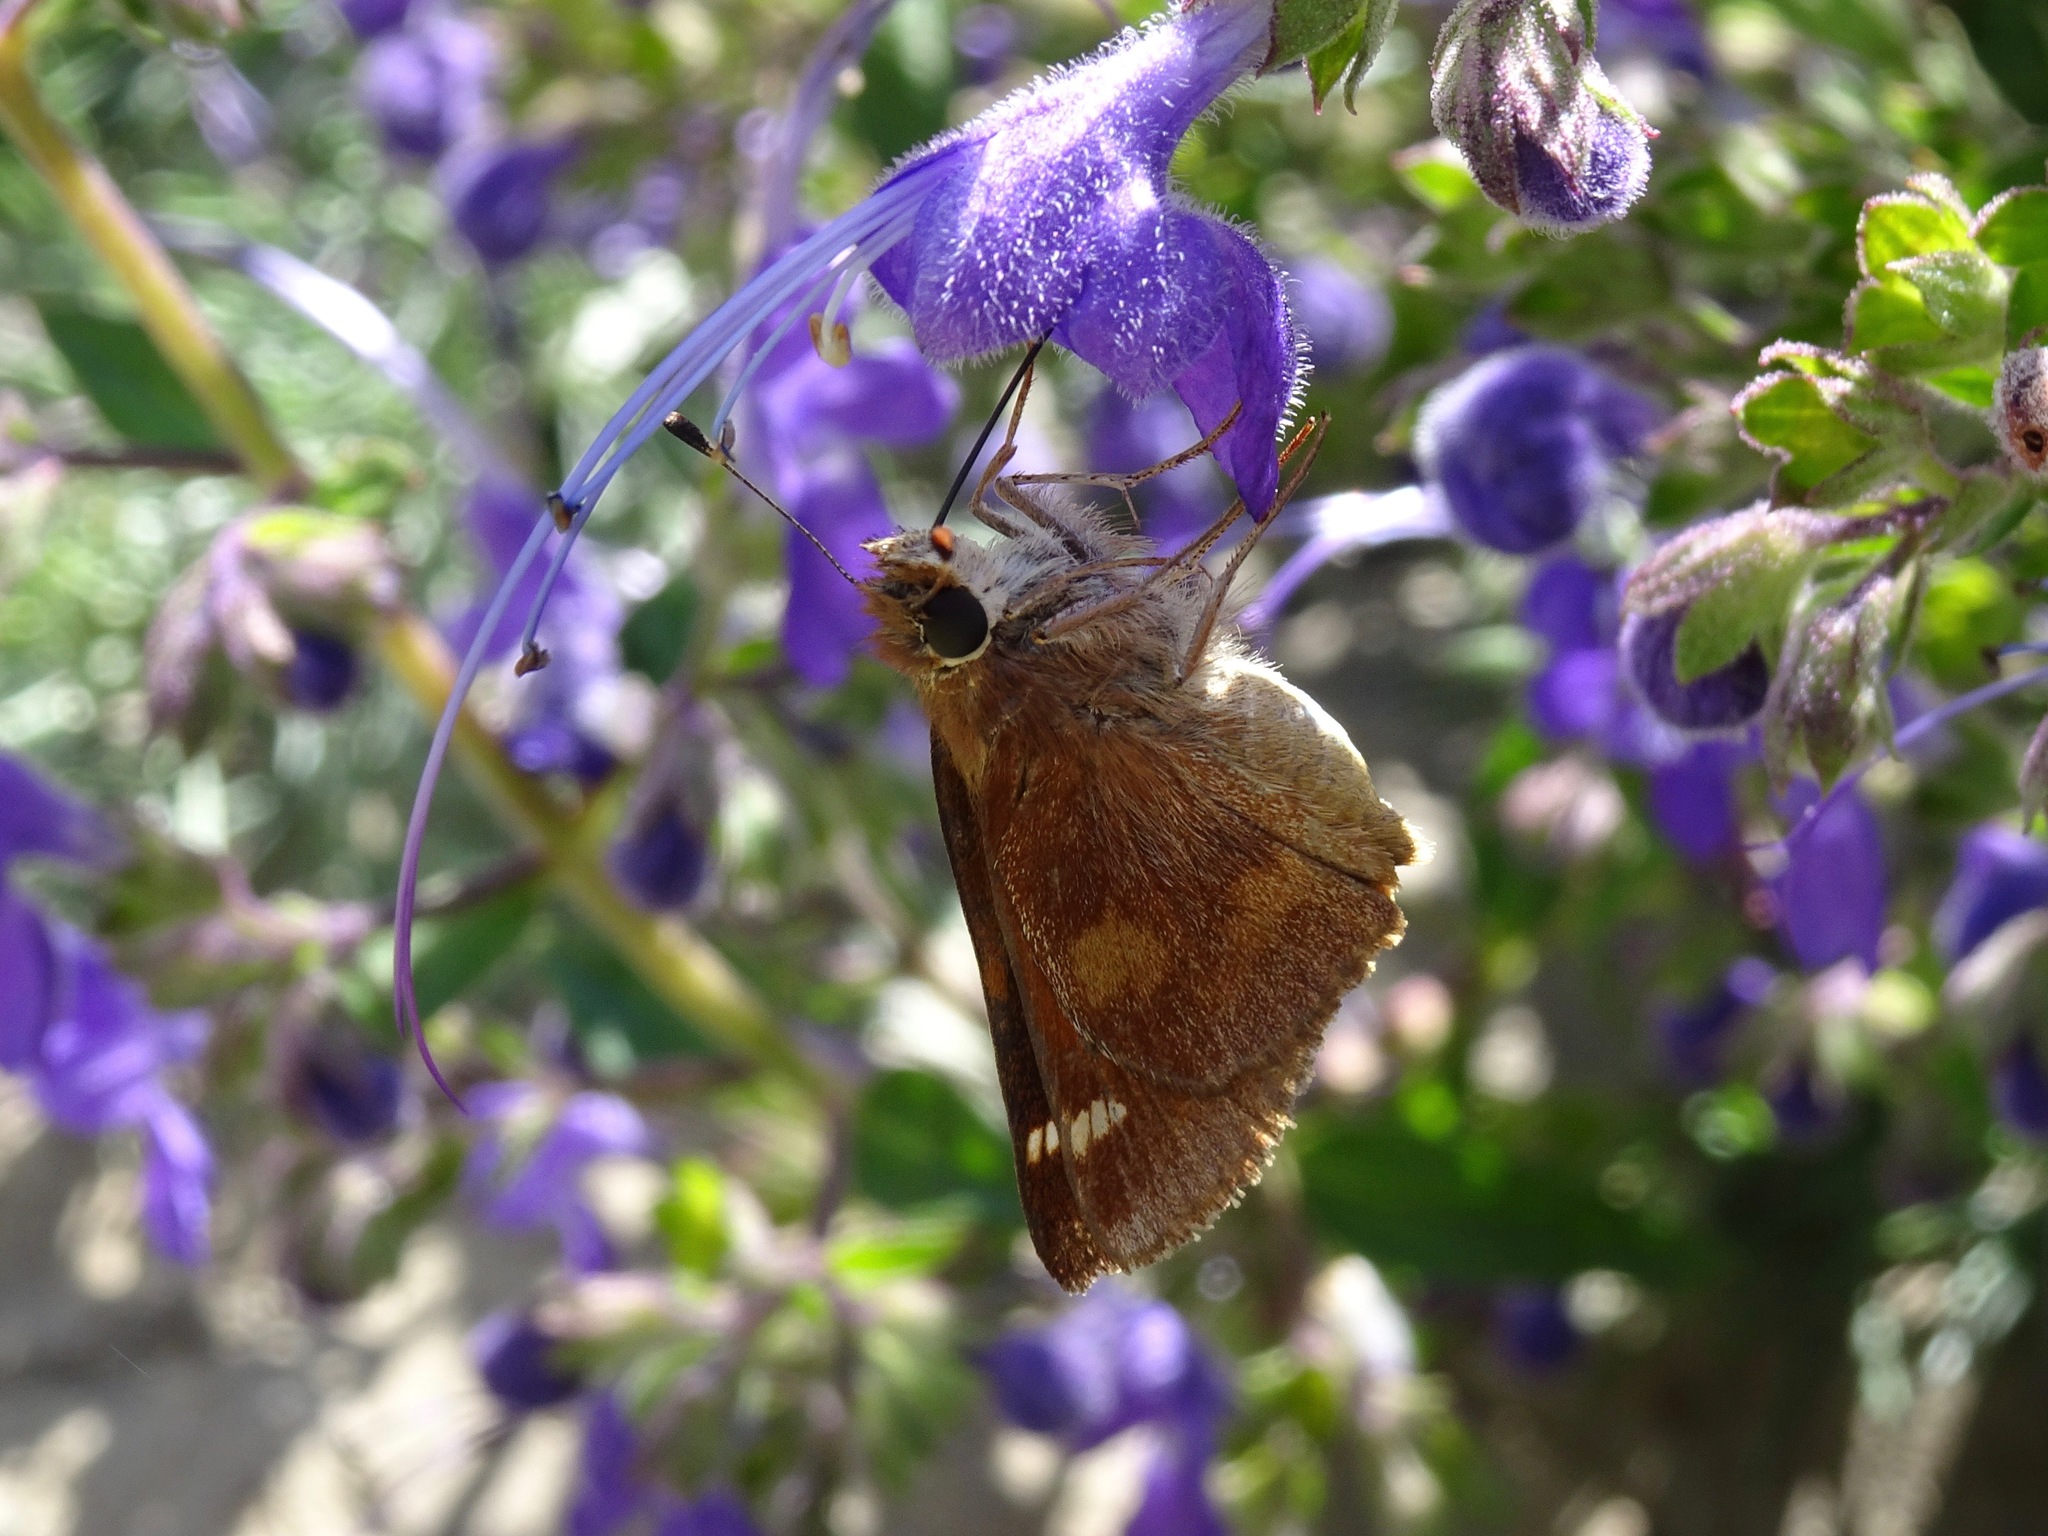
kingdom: Animalia
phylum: Arthropoda
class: Insecta
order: Lepidoptera
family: Hesperiidae
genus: Lon
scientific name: Lon melane
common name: Umber skipper
